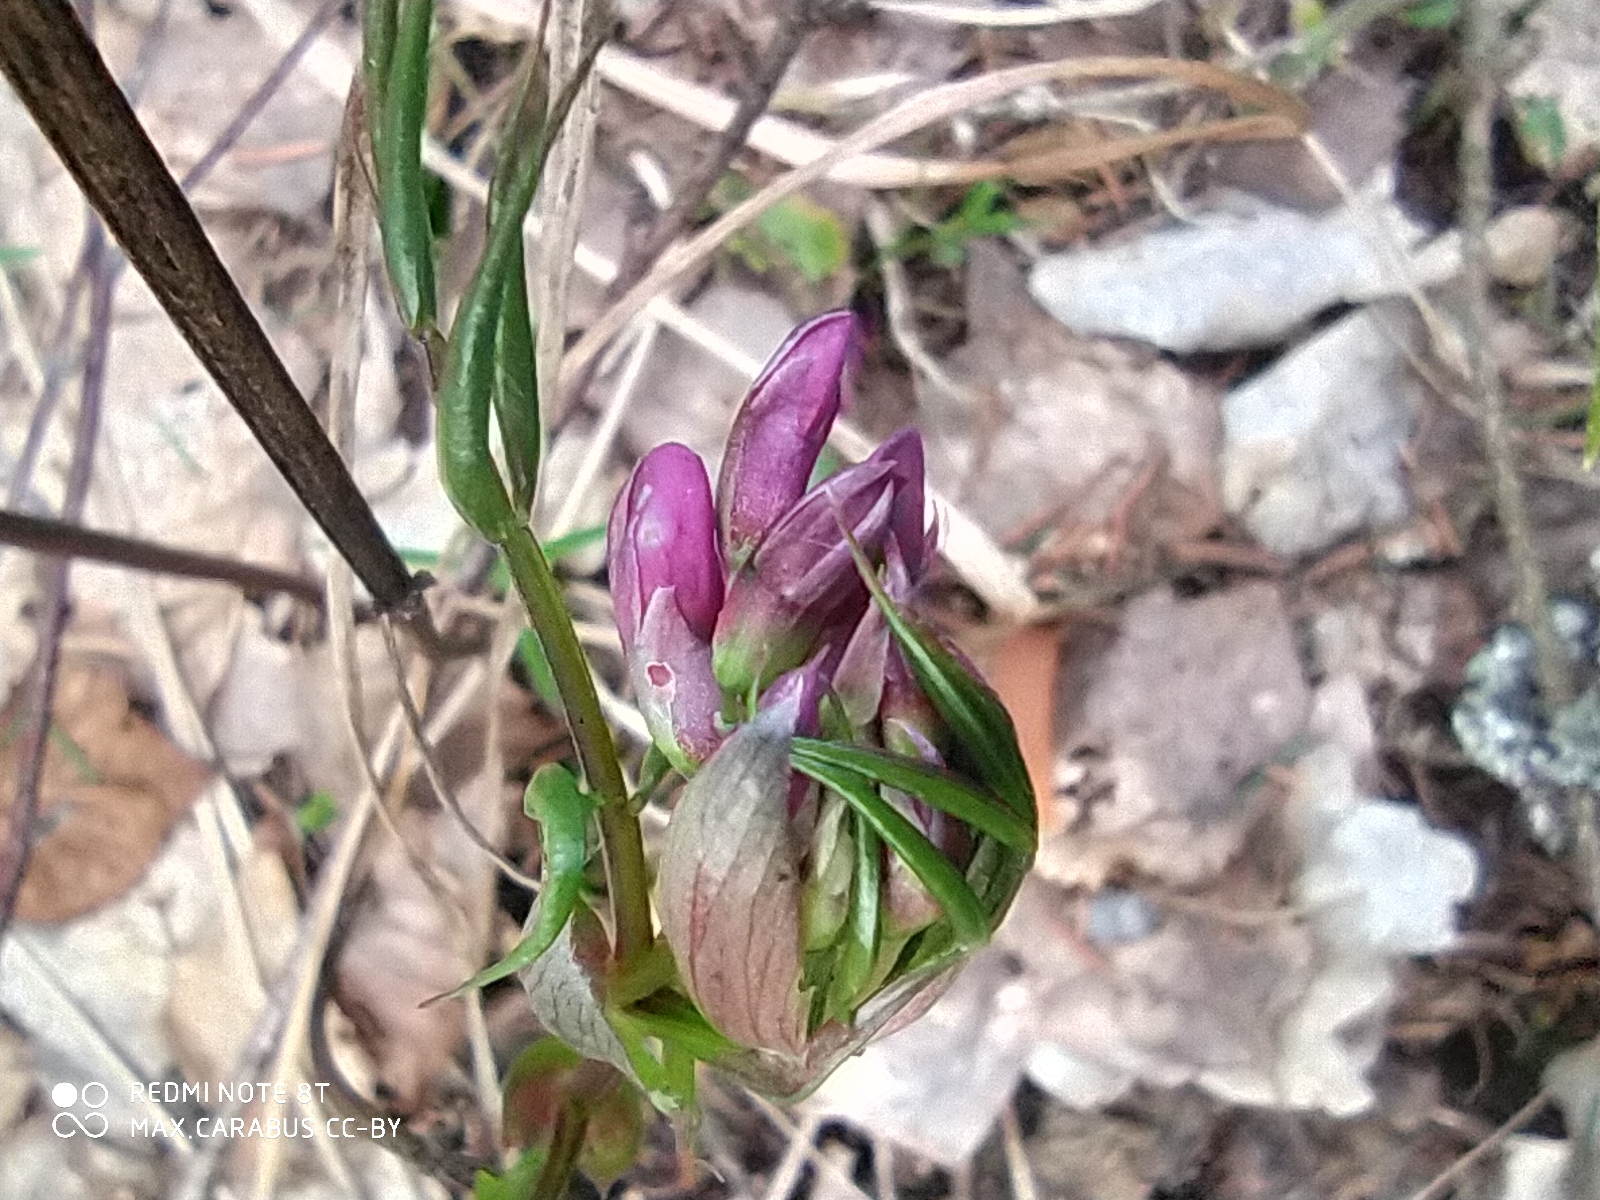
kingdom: Plantae
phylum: Tracheophyta
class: Magnoliopsida
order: Fabales
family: Fabaceae
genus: Lathyrus
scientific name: Lathyrus vernus
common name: Spring pea
